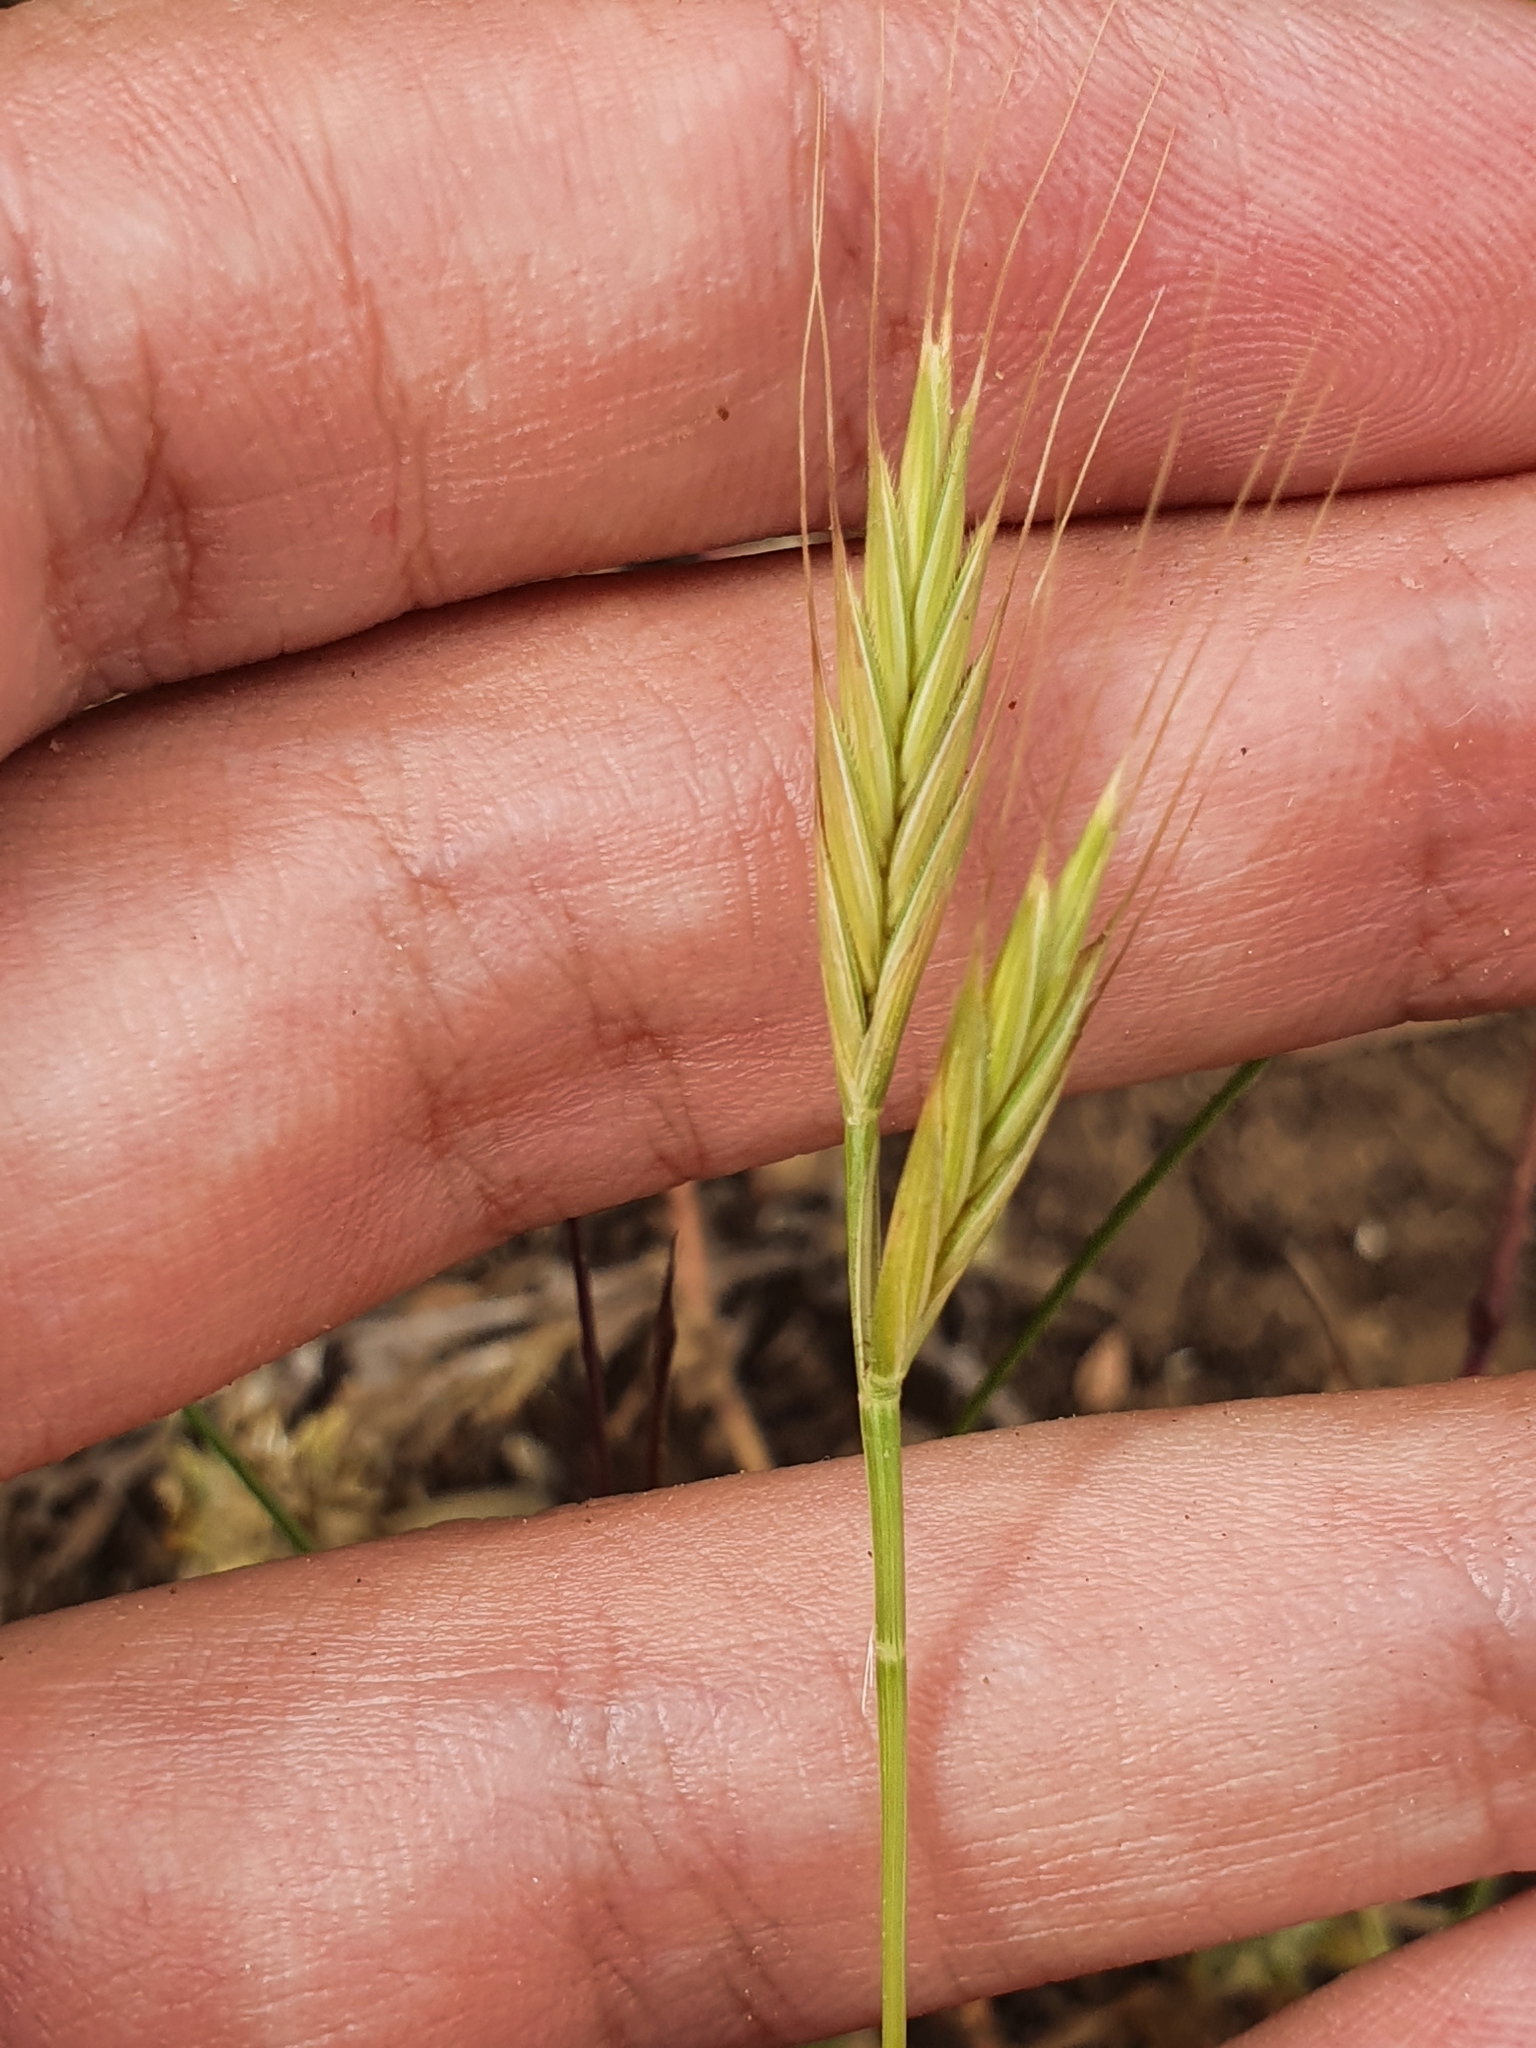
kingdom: Plantae
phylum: Tracheophyta
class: Liliopsida
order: Poales
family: Poaceae
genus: Brachypodium
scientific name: Brachypodium distachyon
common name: Stiff brome
